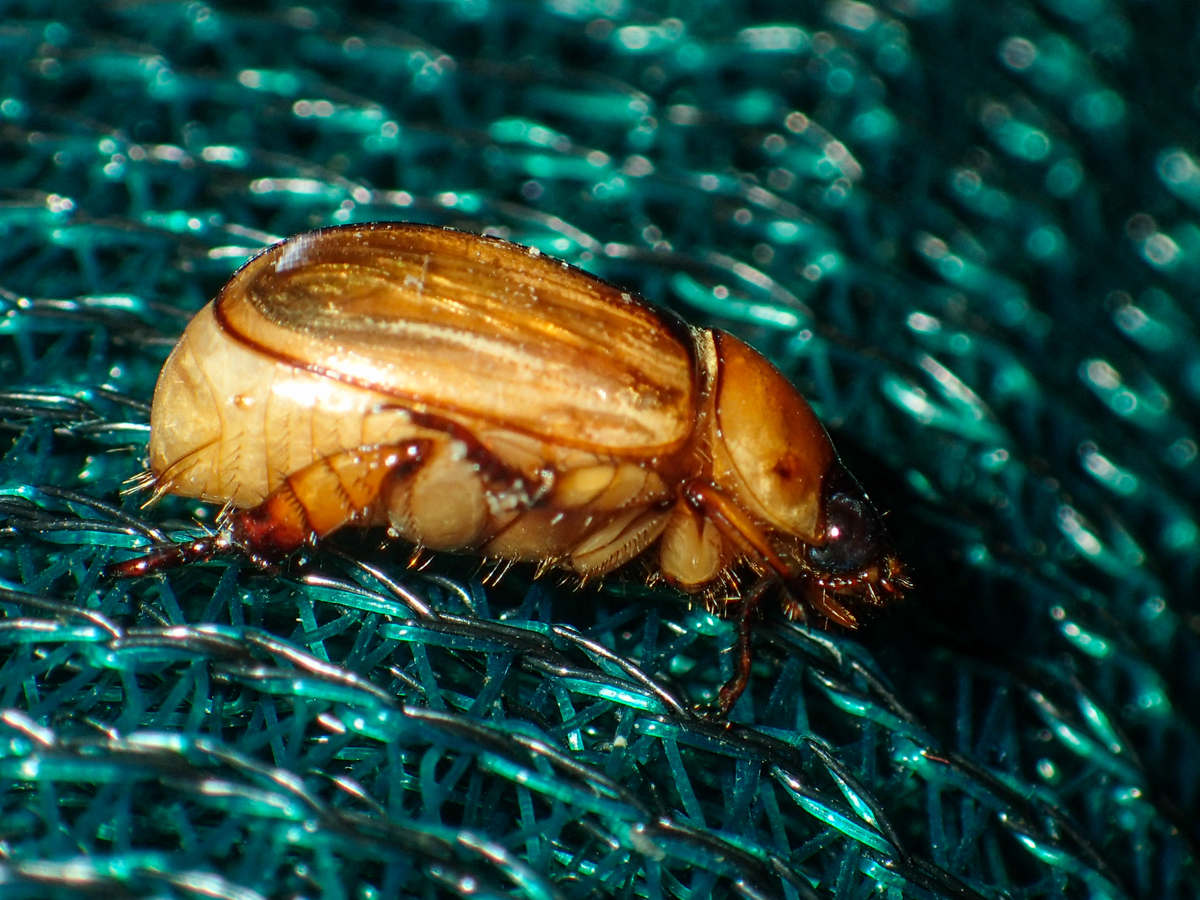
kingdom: Animalia
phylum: Arthropoda
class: Insecta
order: Coleoptera
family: Scarabaeidae
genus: Anomala
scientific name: Anomala pallida
